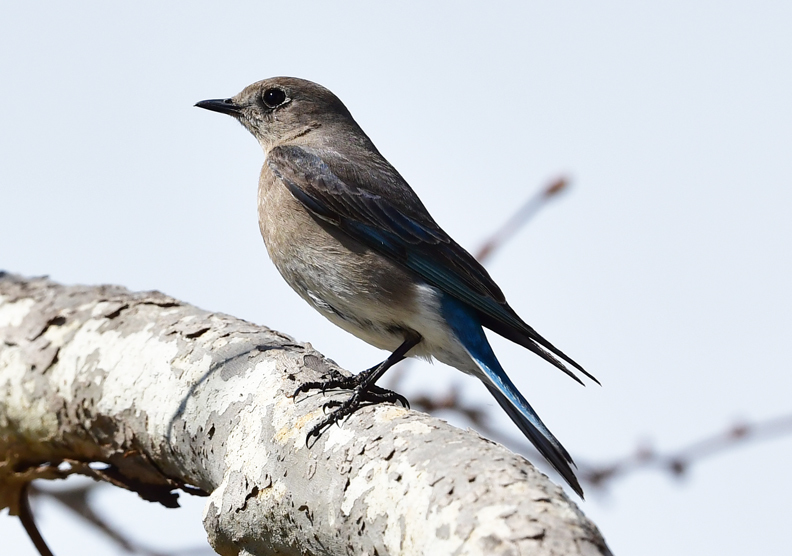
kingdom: Animalia
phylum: Chordata
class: Aves
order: Passeriformes
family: Turdidae
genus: Sialia
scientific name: Sialia currucoides
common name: Mountain bluebird
